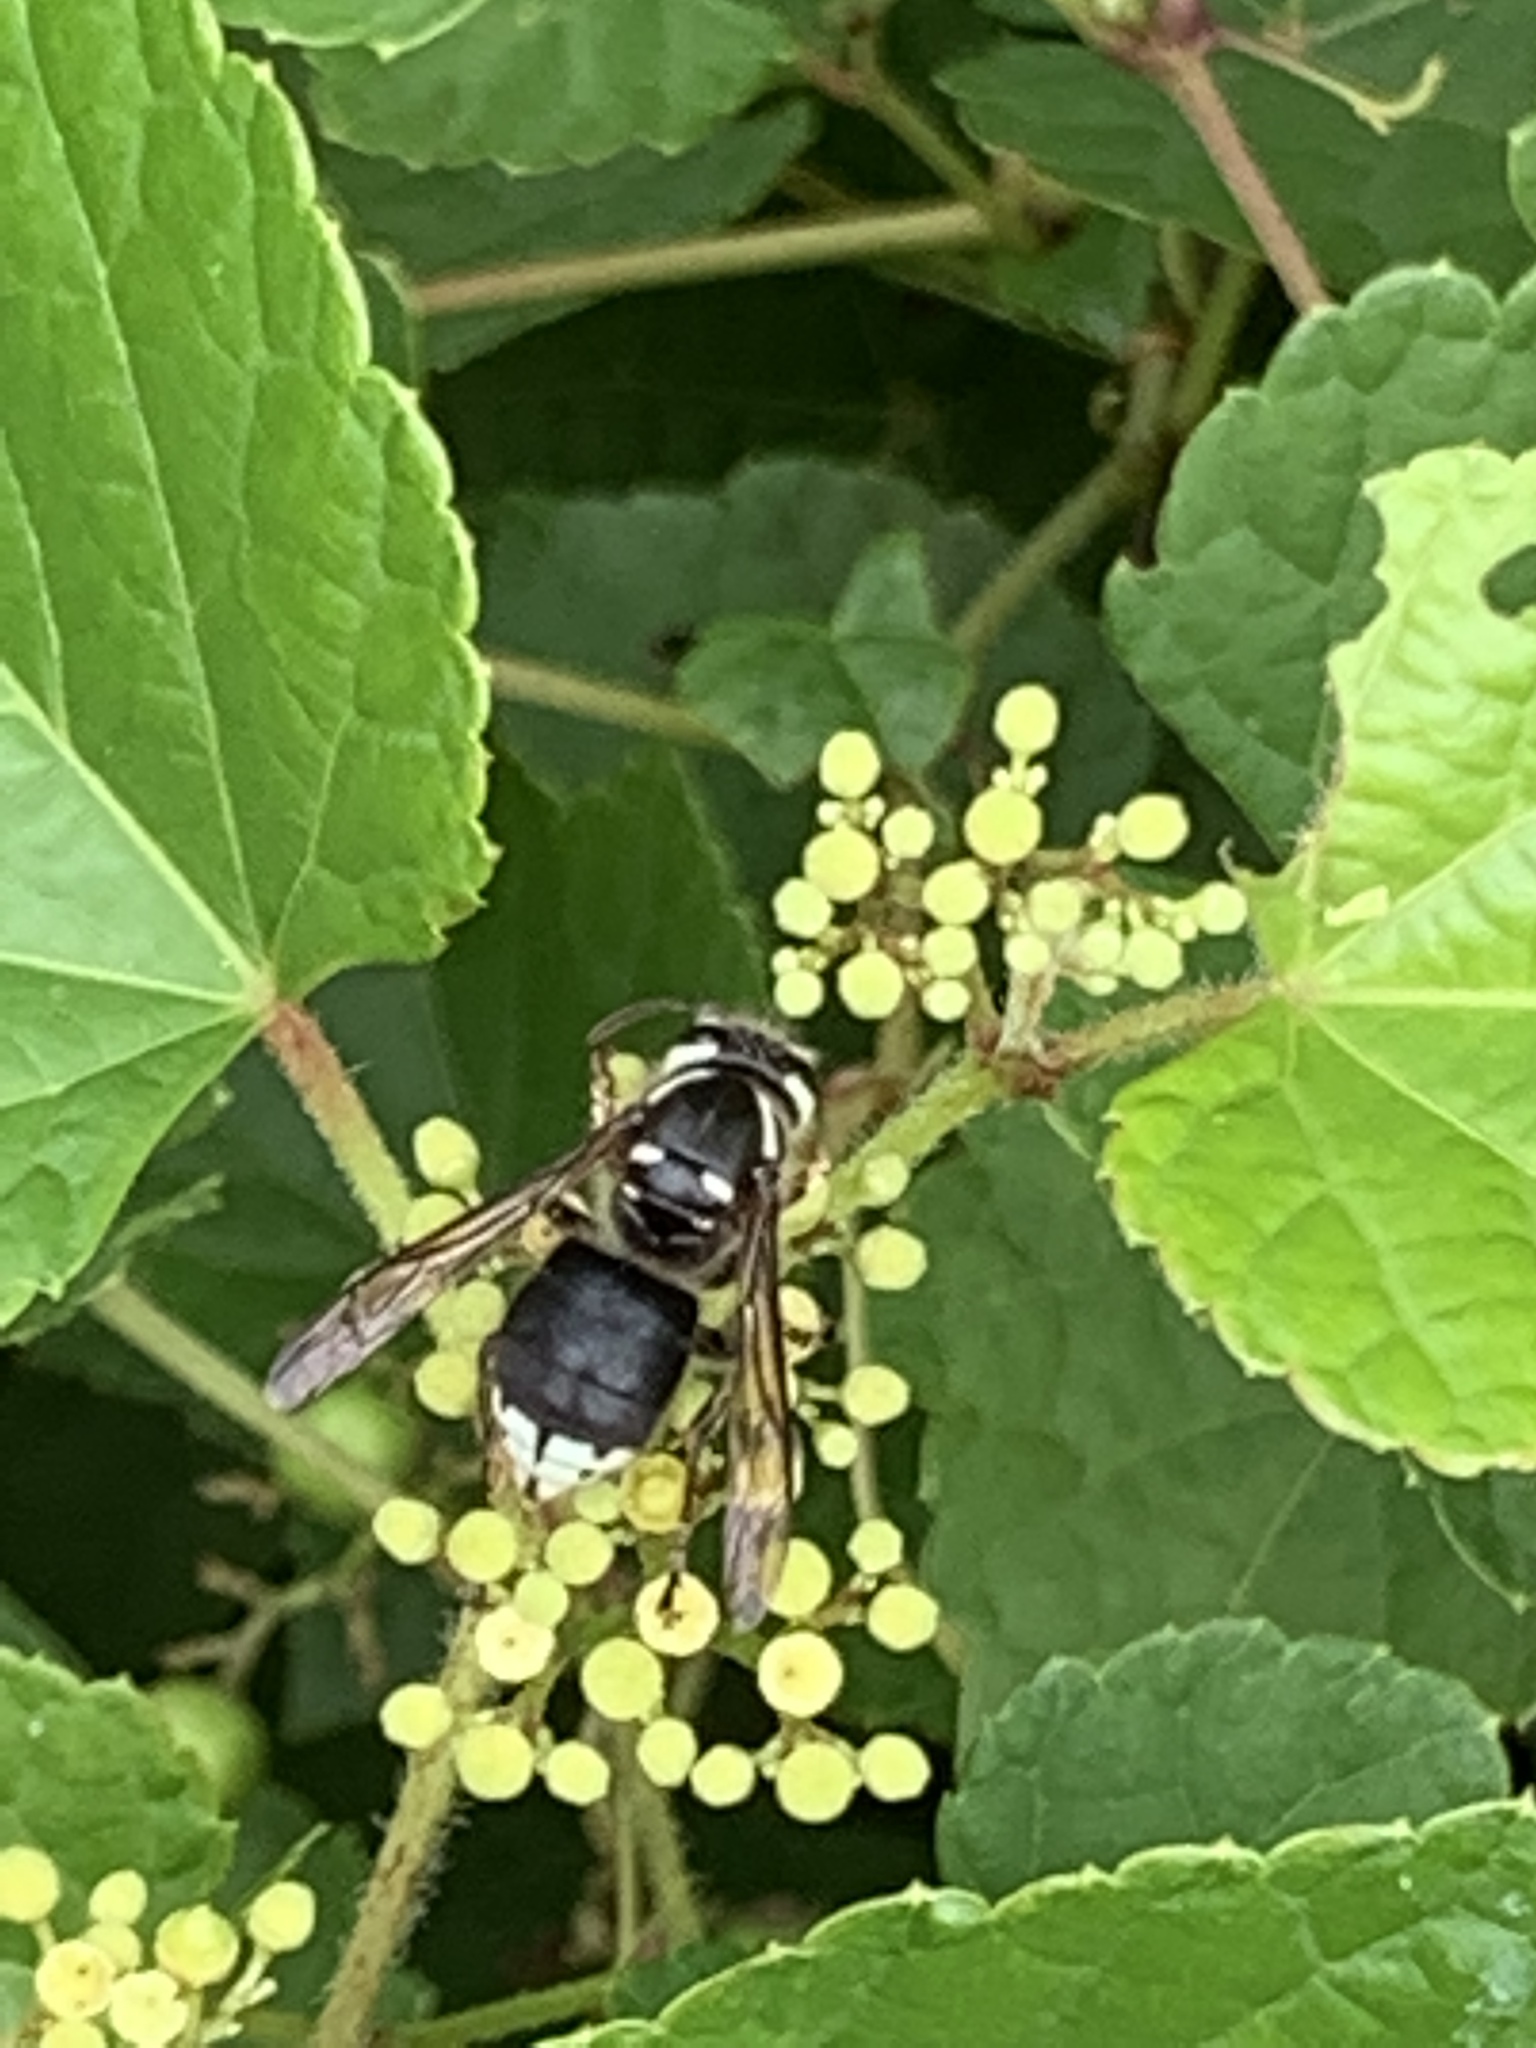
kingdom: Animalia
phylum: Arthropoda
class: Insecta
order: Hymenoptera
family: Vespidae
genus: Dolichovespula
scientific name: Dolichovespula maculata
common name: Bald-faced hornet
